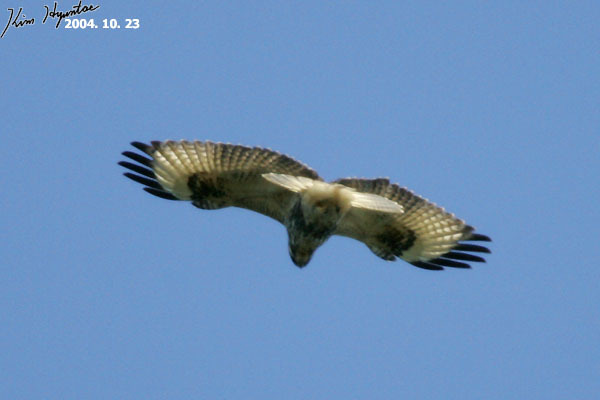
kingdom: Animalia
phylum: Chordata
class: Aves
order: Accipitriformes
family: Accipitridae
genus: Buteo
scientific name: Buteo japonicus
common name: Eastern buzzard
